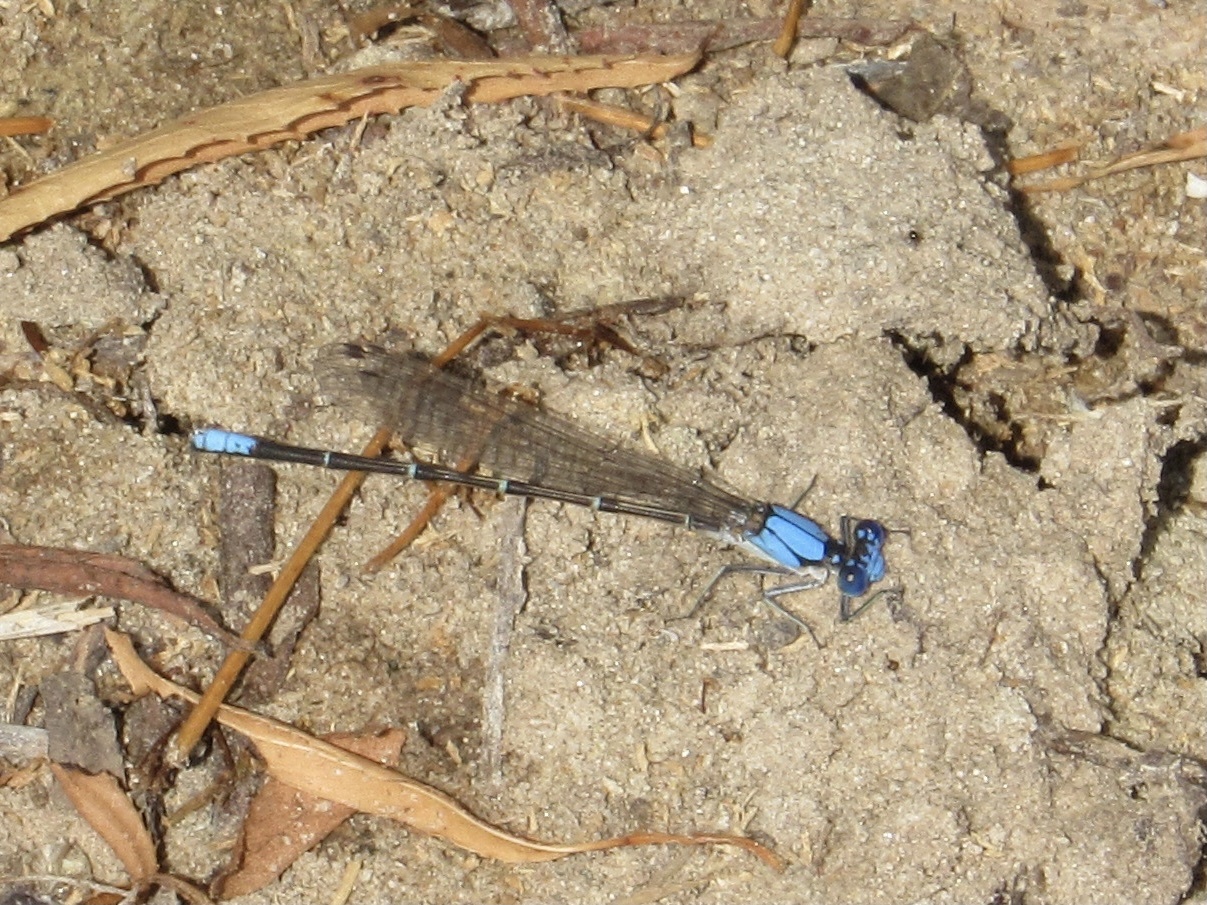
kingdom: Animalia
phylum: Arthropoda
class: Insecta
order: Odonata
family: Coenagrionidae
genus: Argia
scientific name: Argia apicalis
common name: Blue-fronted dancer
